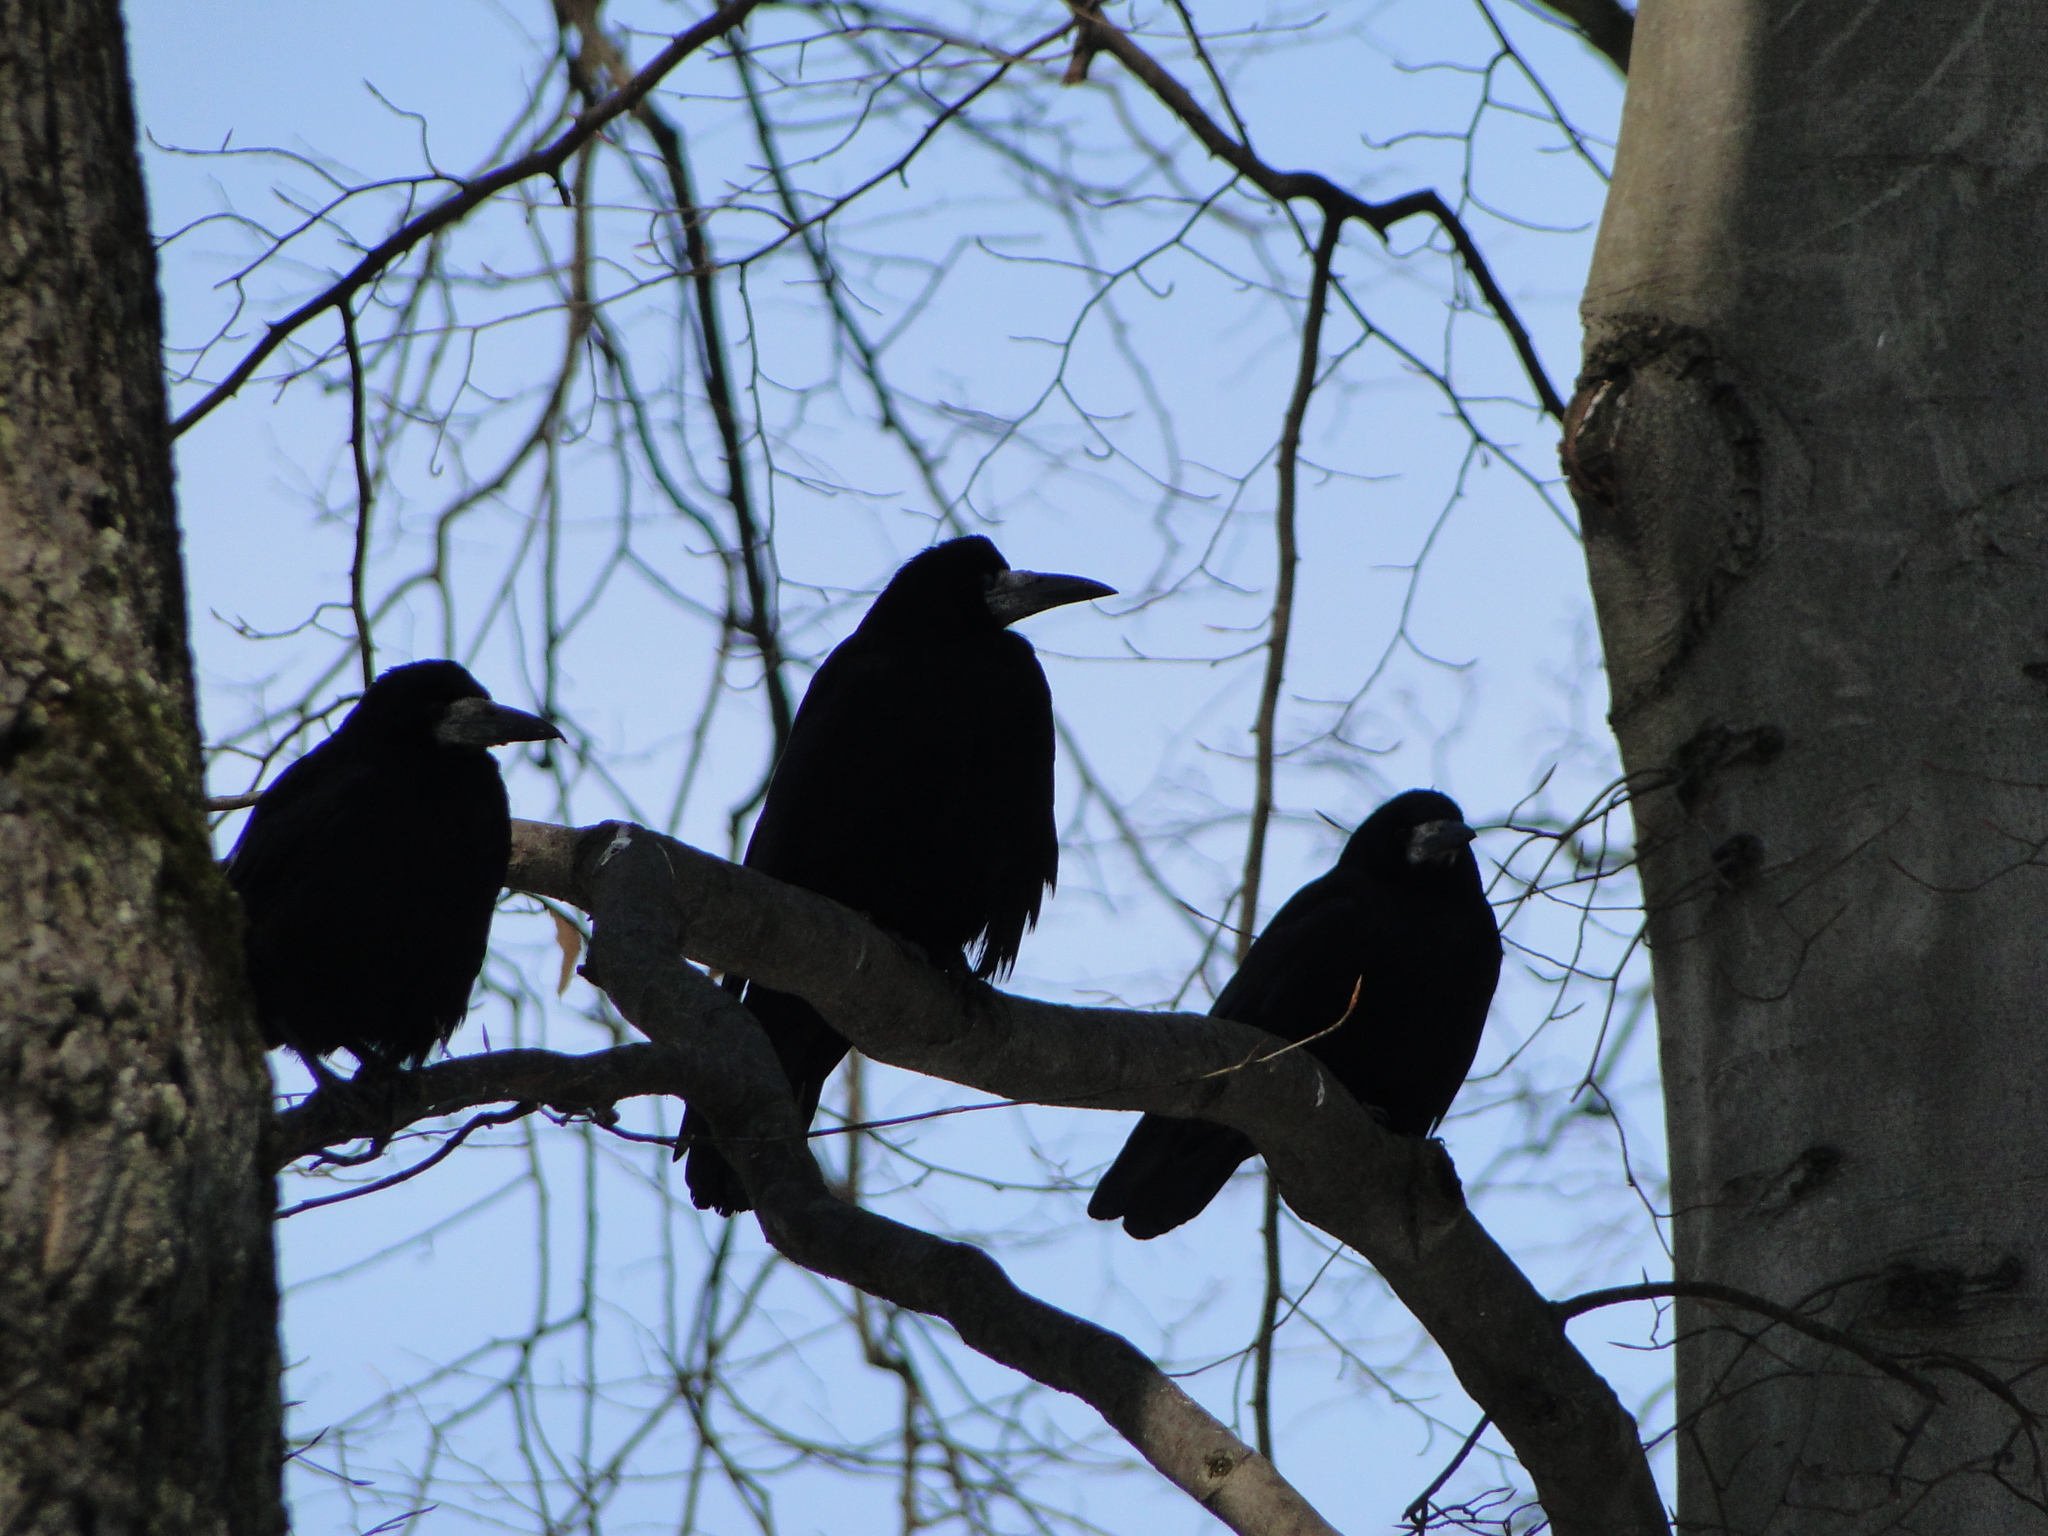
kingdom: Animalia
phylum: Chordata
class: Aves
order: Passeriformes
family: Corvidae
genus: Corvus
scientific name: Corvus frugilegus
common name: Rook
